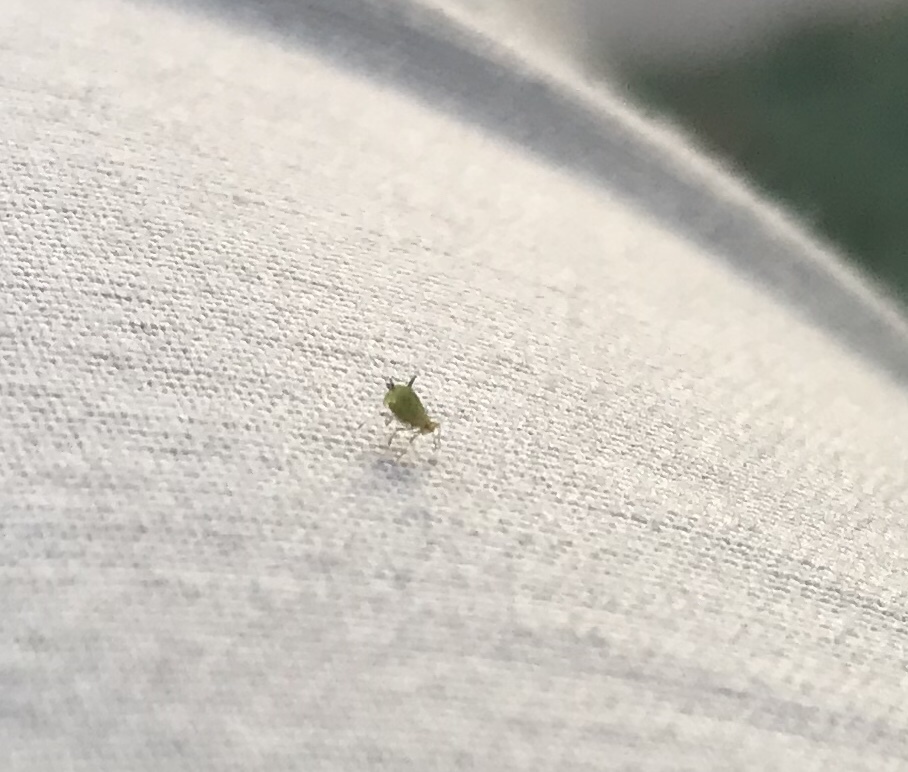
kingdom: Animalia
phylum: Arthropoda
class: Insecta
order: Hemiptera
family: Aphididae
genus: Aphis
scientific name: Aphis spiraecola
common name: Spirea aphid
